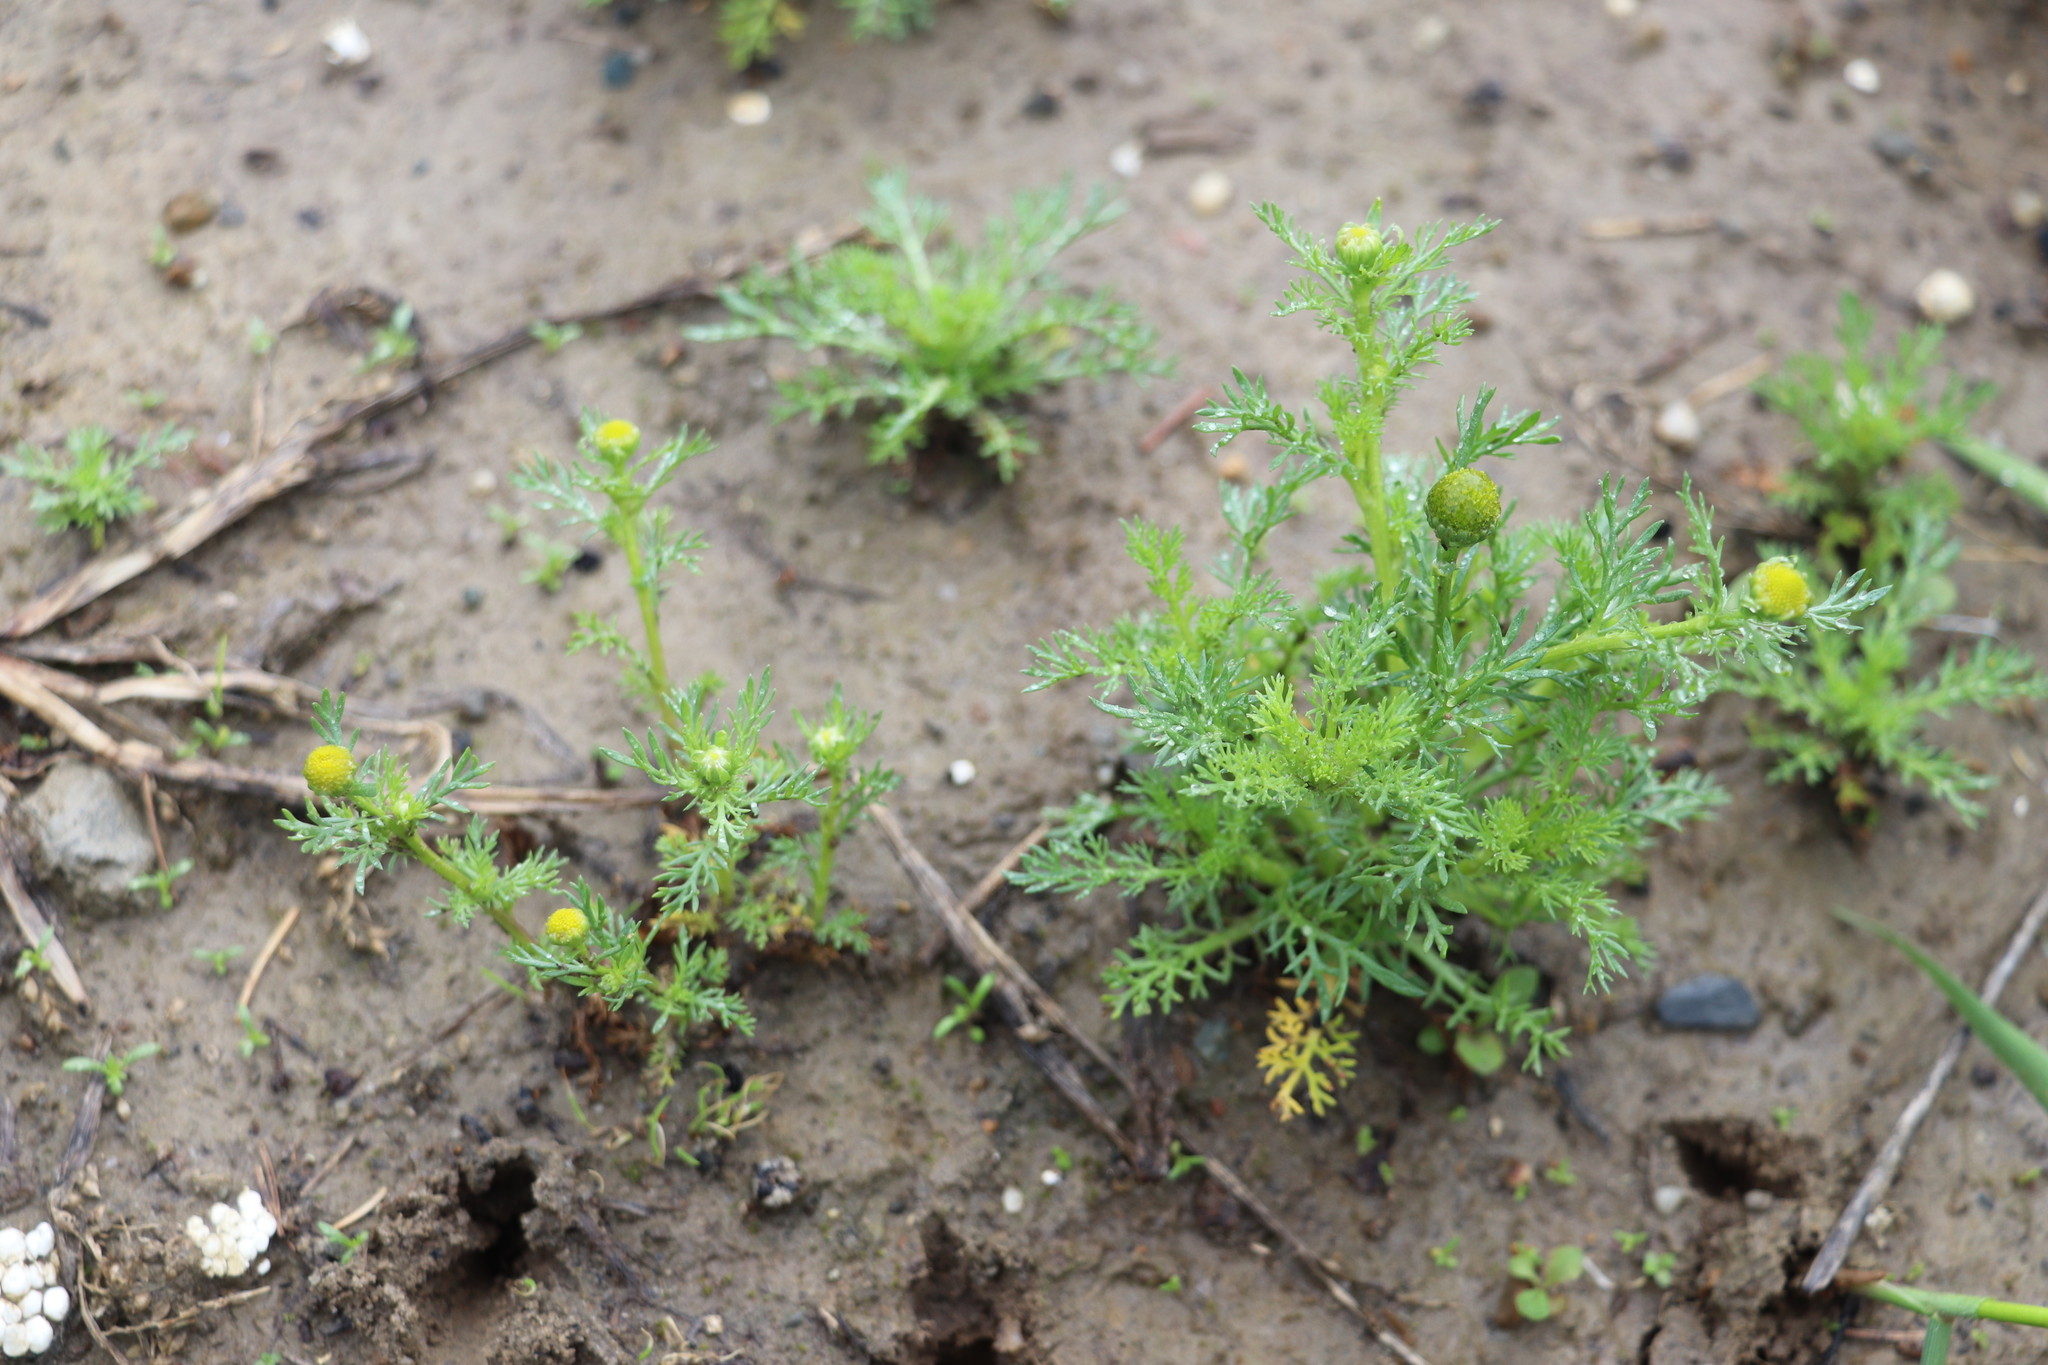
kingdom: Plantae
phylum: Tracheophyta
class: Magnoliopsida
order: Asterales
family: Asteraceae
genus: Matricaria
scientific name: Matricaria discoidea
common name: Disc mayweed
